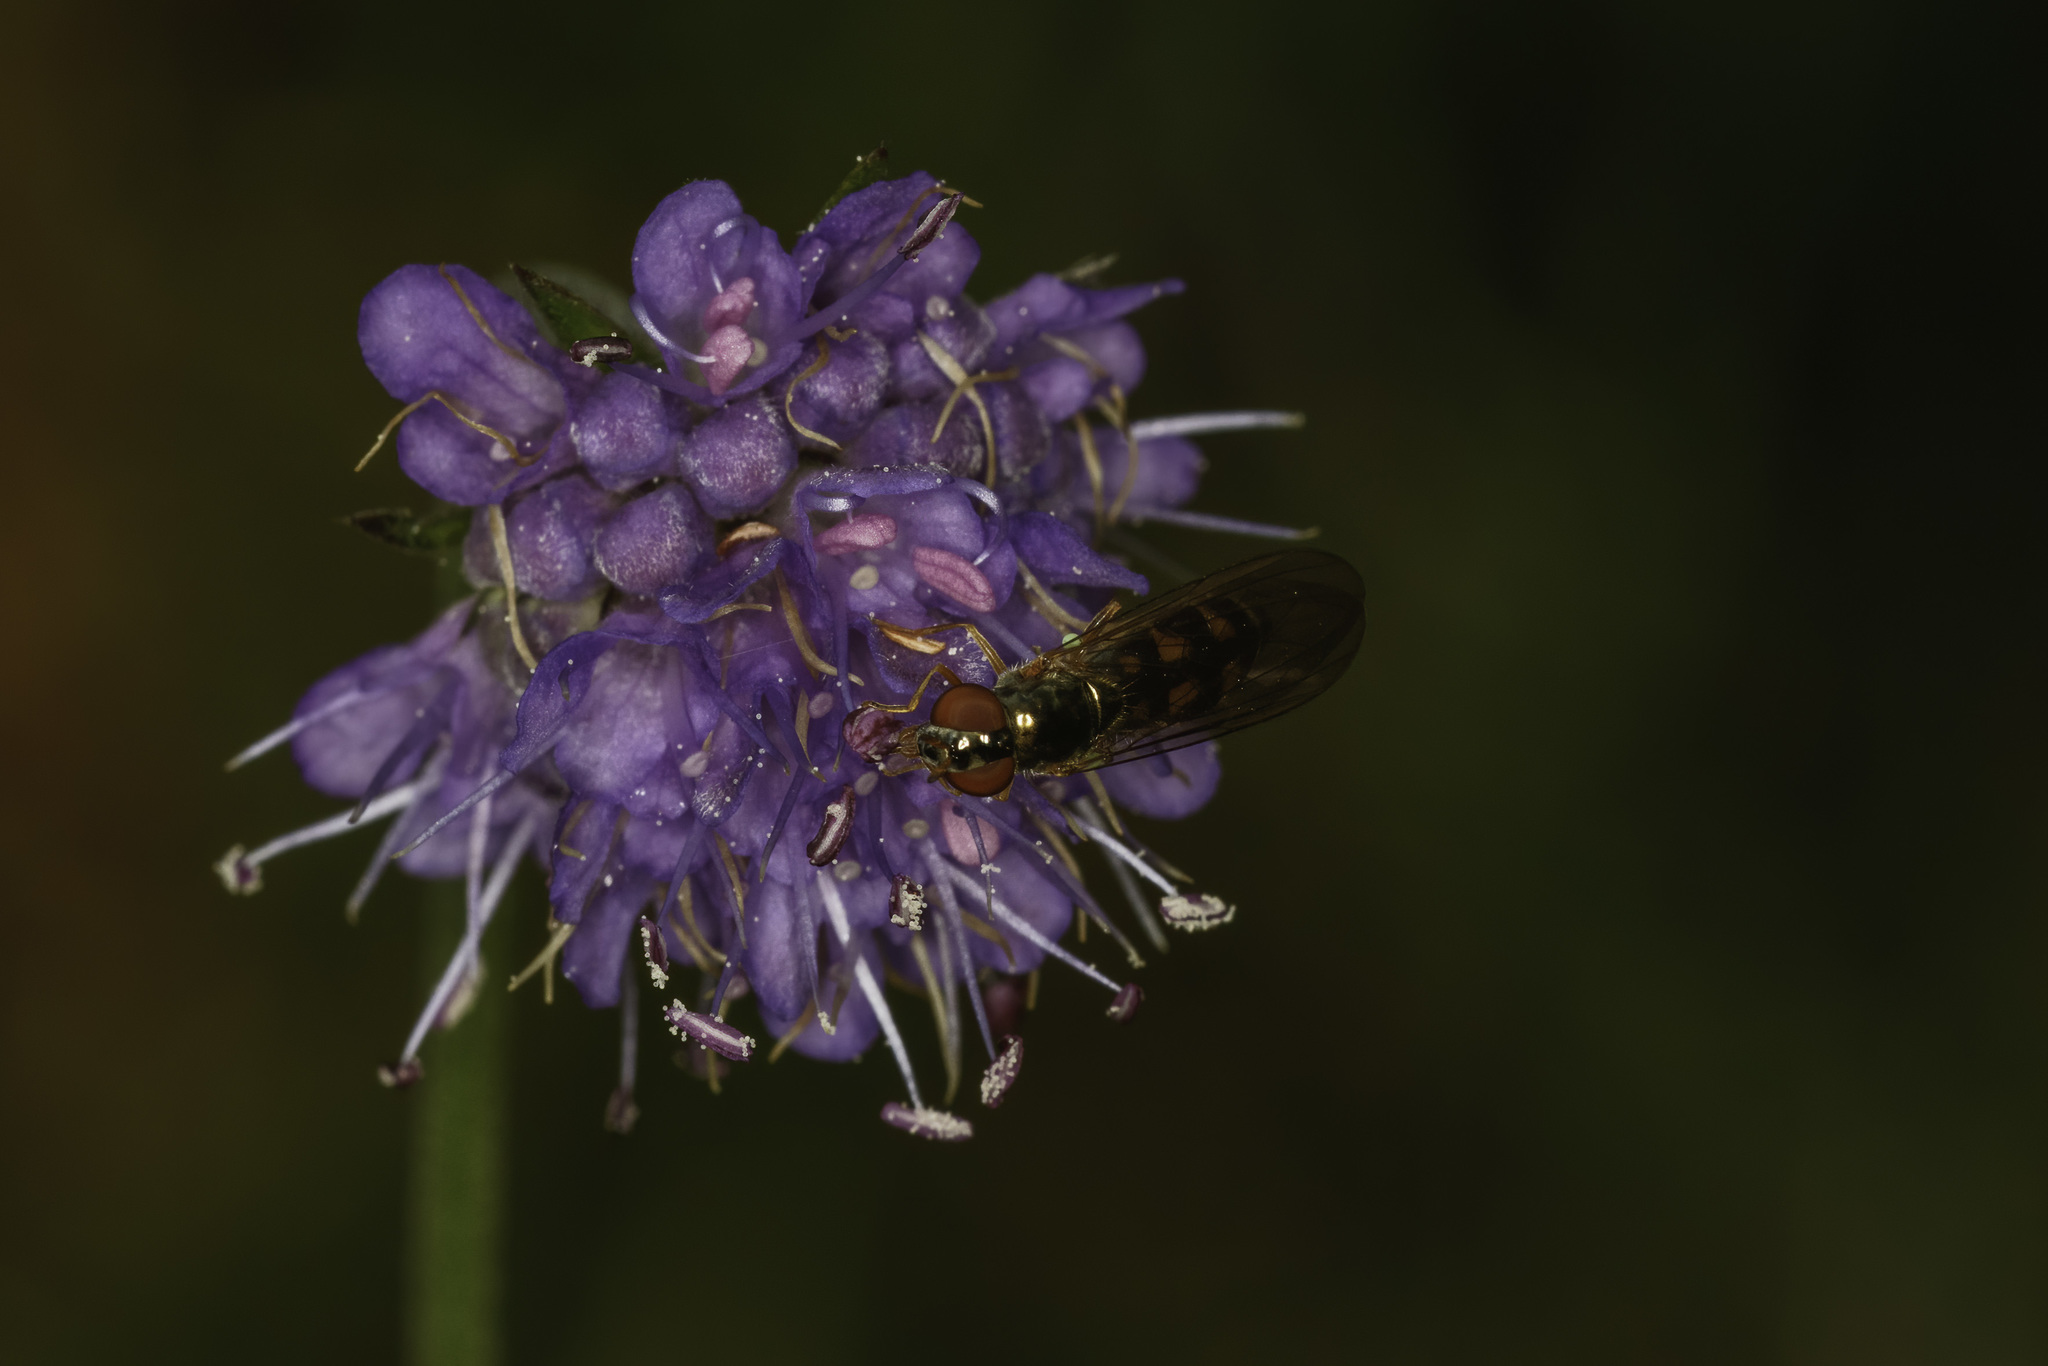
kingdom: Animalia
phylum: Arthropoda
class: Insecta
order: Diptera
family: Syrphidae
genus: Melanostoma
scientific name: Melanostoma scalare
